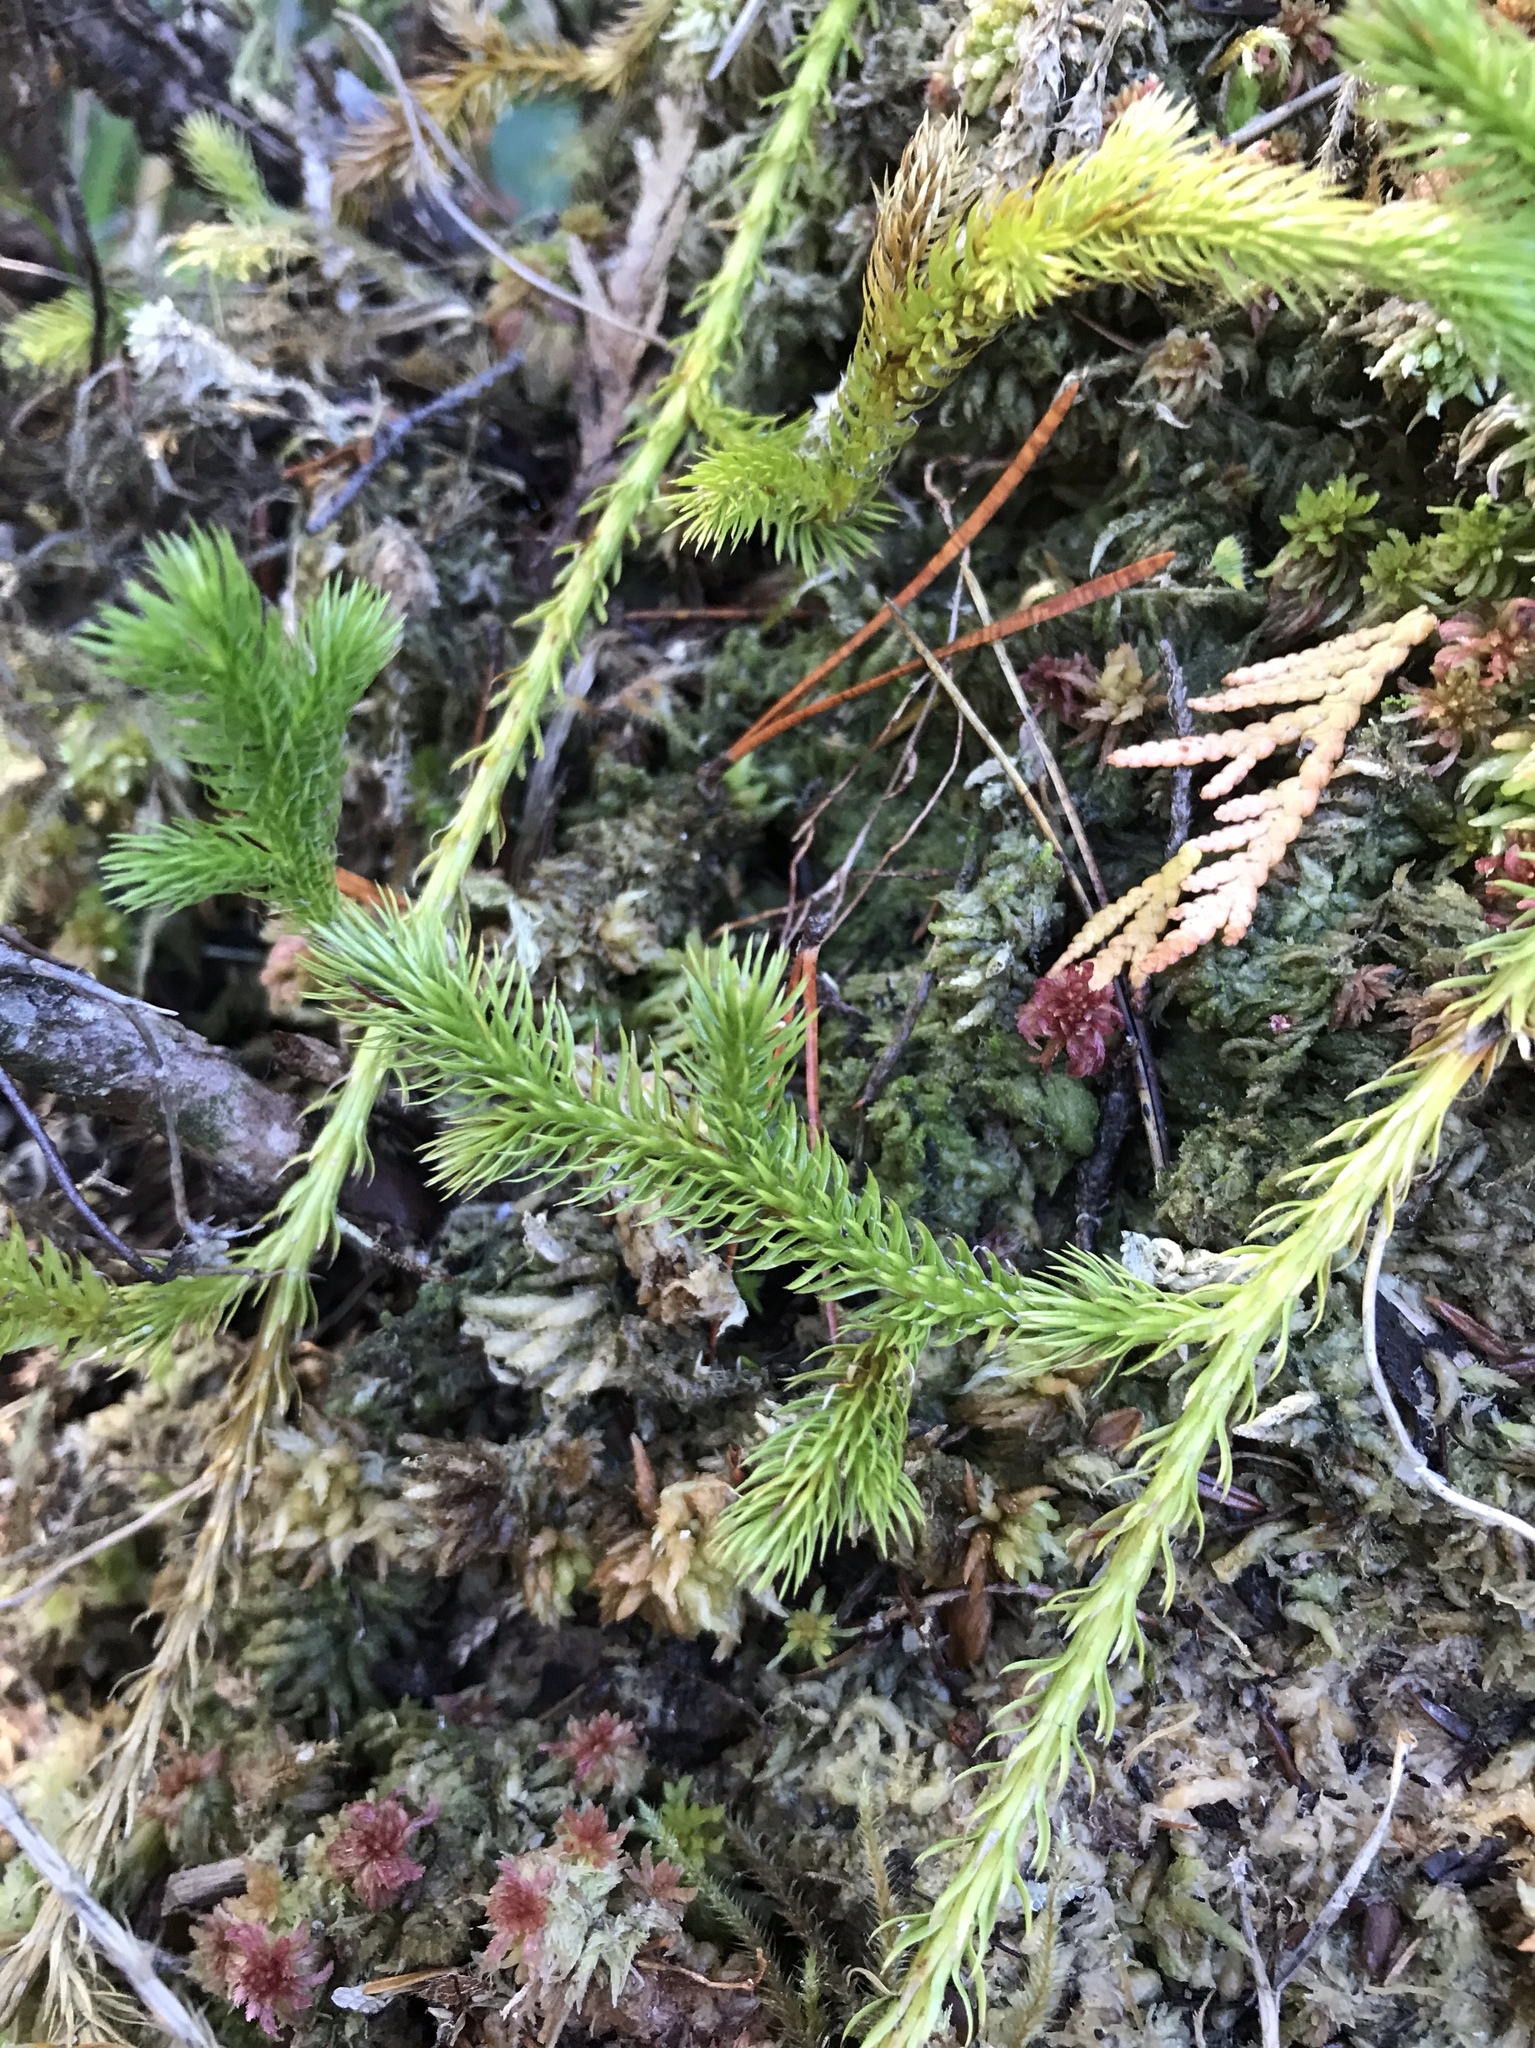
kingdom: Plantae
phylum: Tracheophyta
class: Lycopodiopsida
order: Lycopodiales
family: Lycopodiaceae
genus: Lycopodium
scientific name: Lycopodium clavatum
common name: Stag's-horn clubmoss
